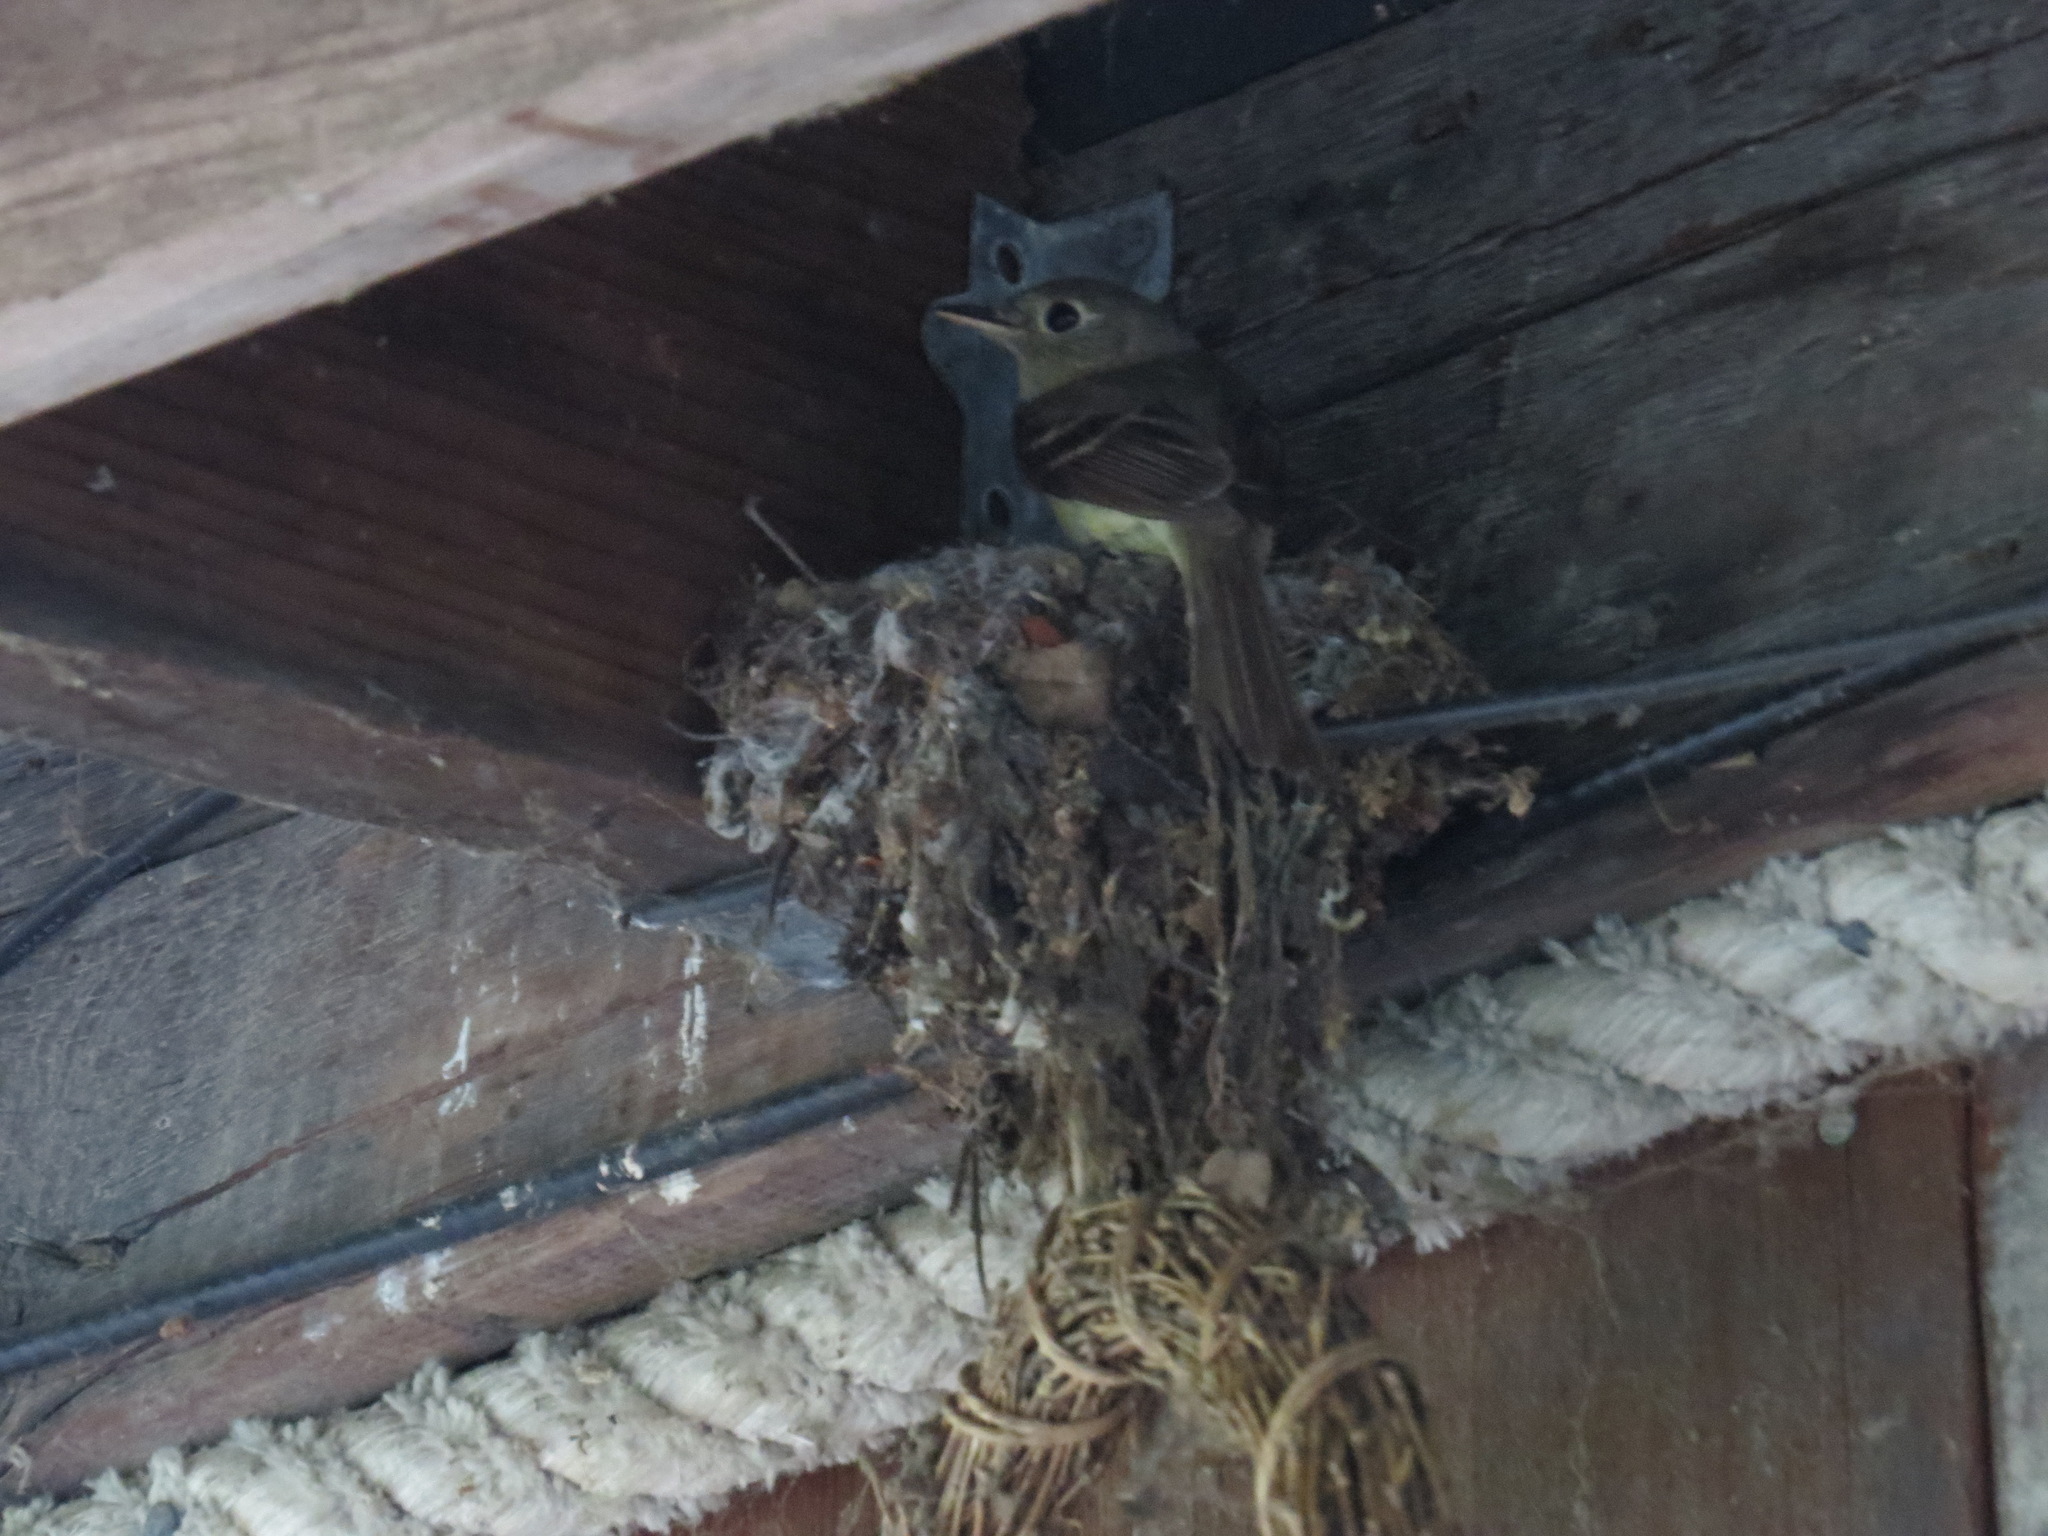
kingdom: Animalia
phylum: Chordata
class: Aves
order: Passeriformes
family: Tyrannidae
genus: Empidonax
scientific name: Empidonax difficilis
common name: Pacific-slope flycatcher
